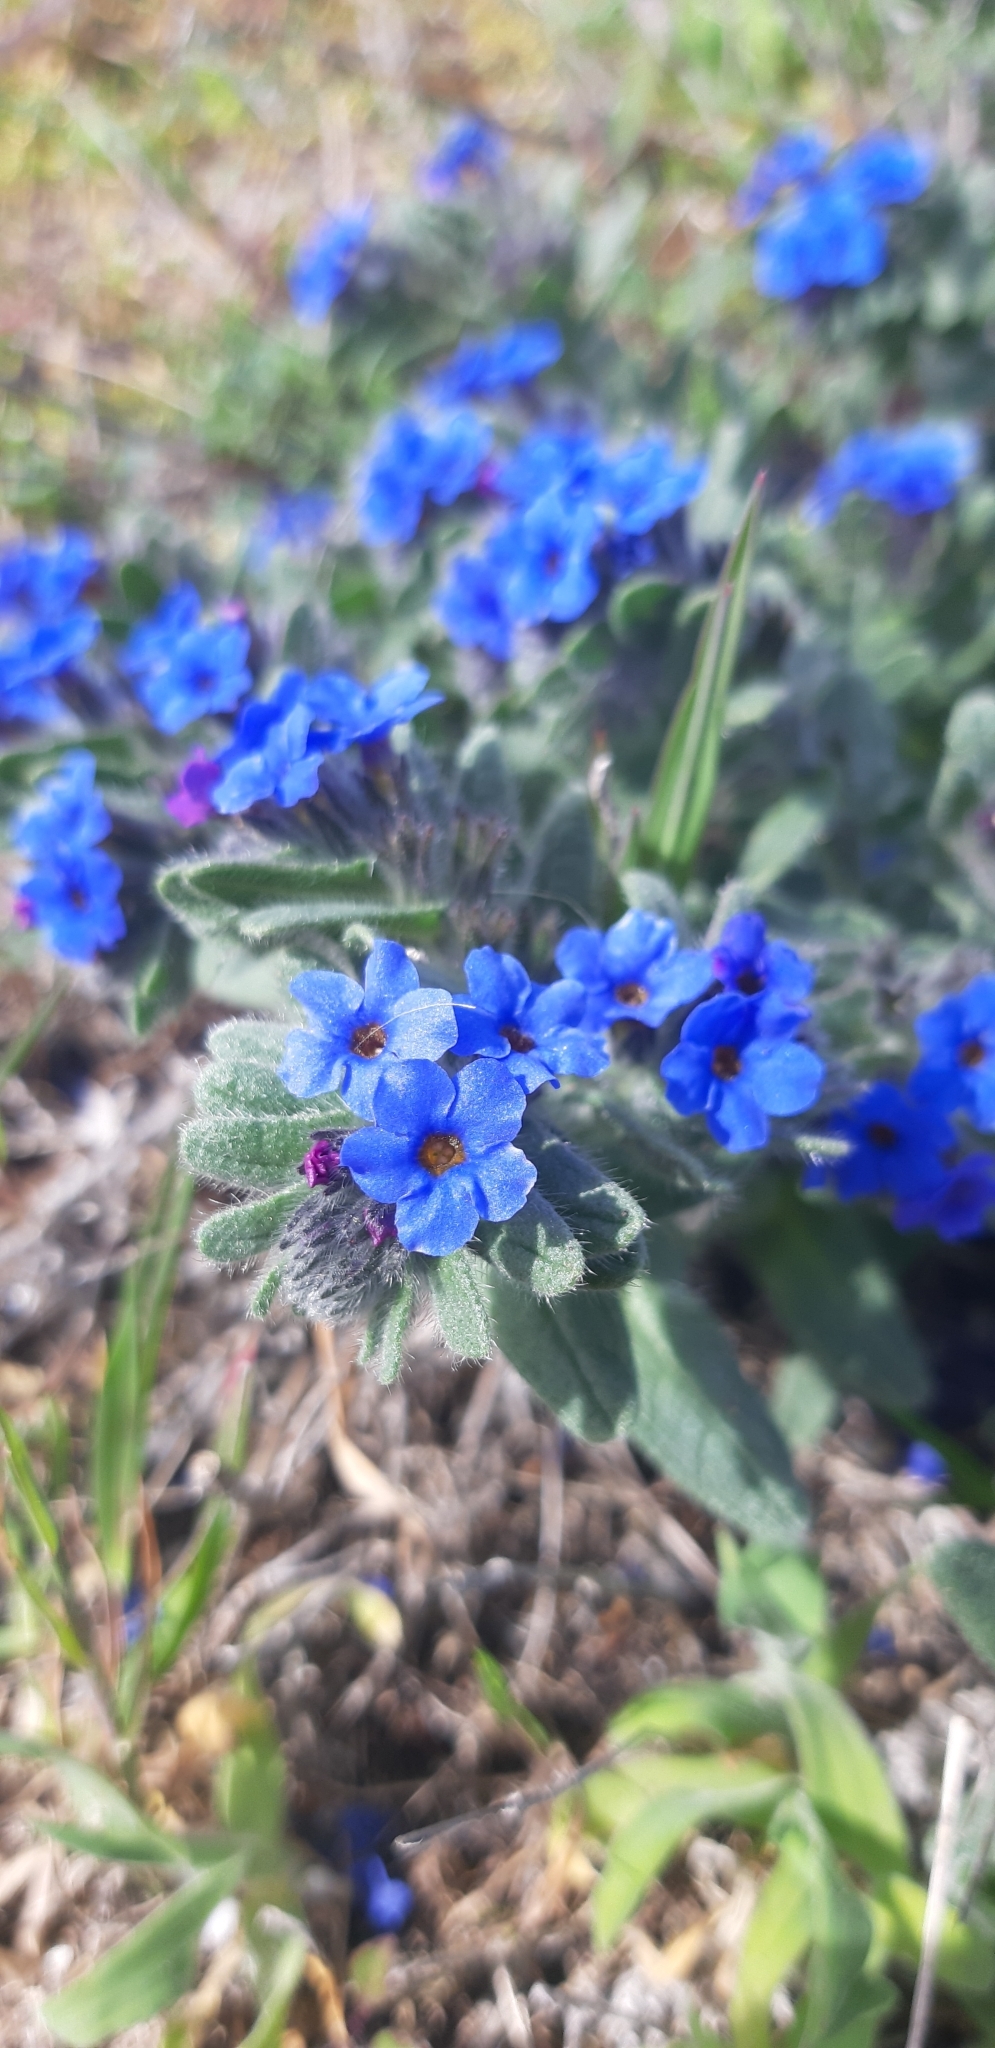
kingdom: Plantae
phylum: Tracheophyta
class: Magnoliopsida
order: Boraginales
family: Boraginaceae
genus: Alkanna
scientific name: Alkanna tinctoria
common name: Dyer's-alkanet
